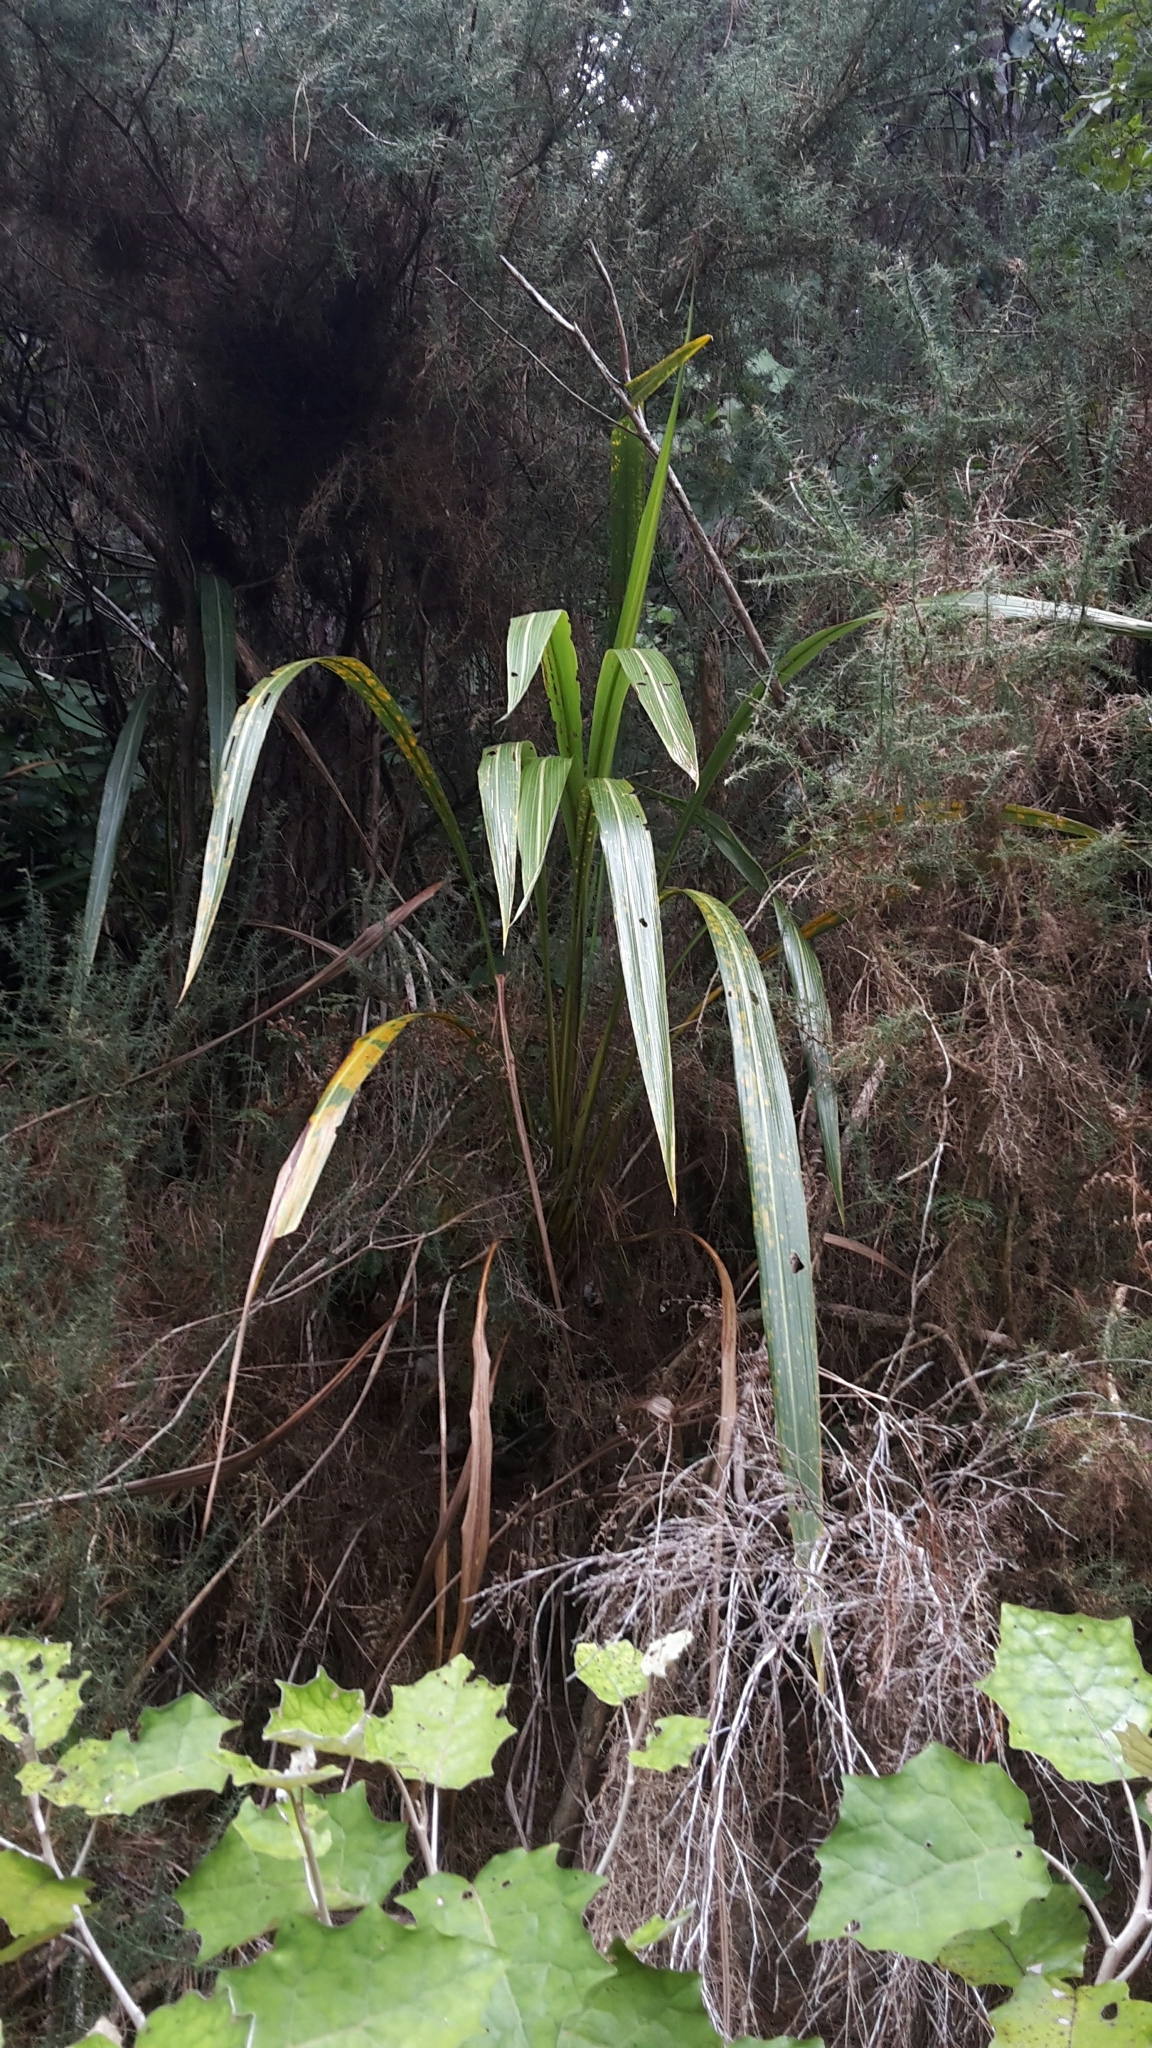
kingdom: Plantae
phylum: Tracheophyta
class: Liliopsida
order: Asparagales
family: Asparagaceae
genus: Cordyline
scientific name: Cordyline banksii
